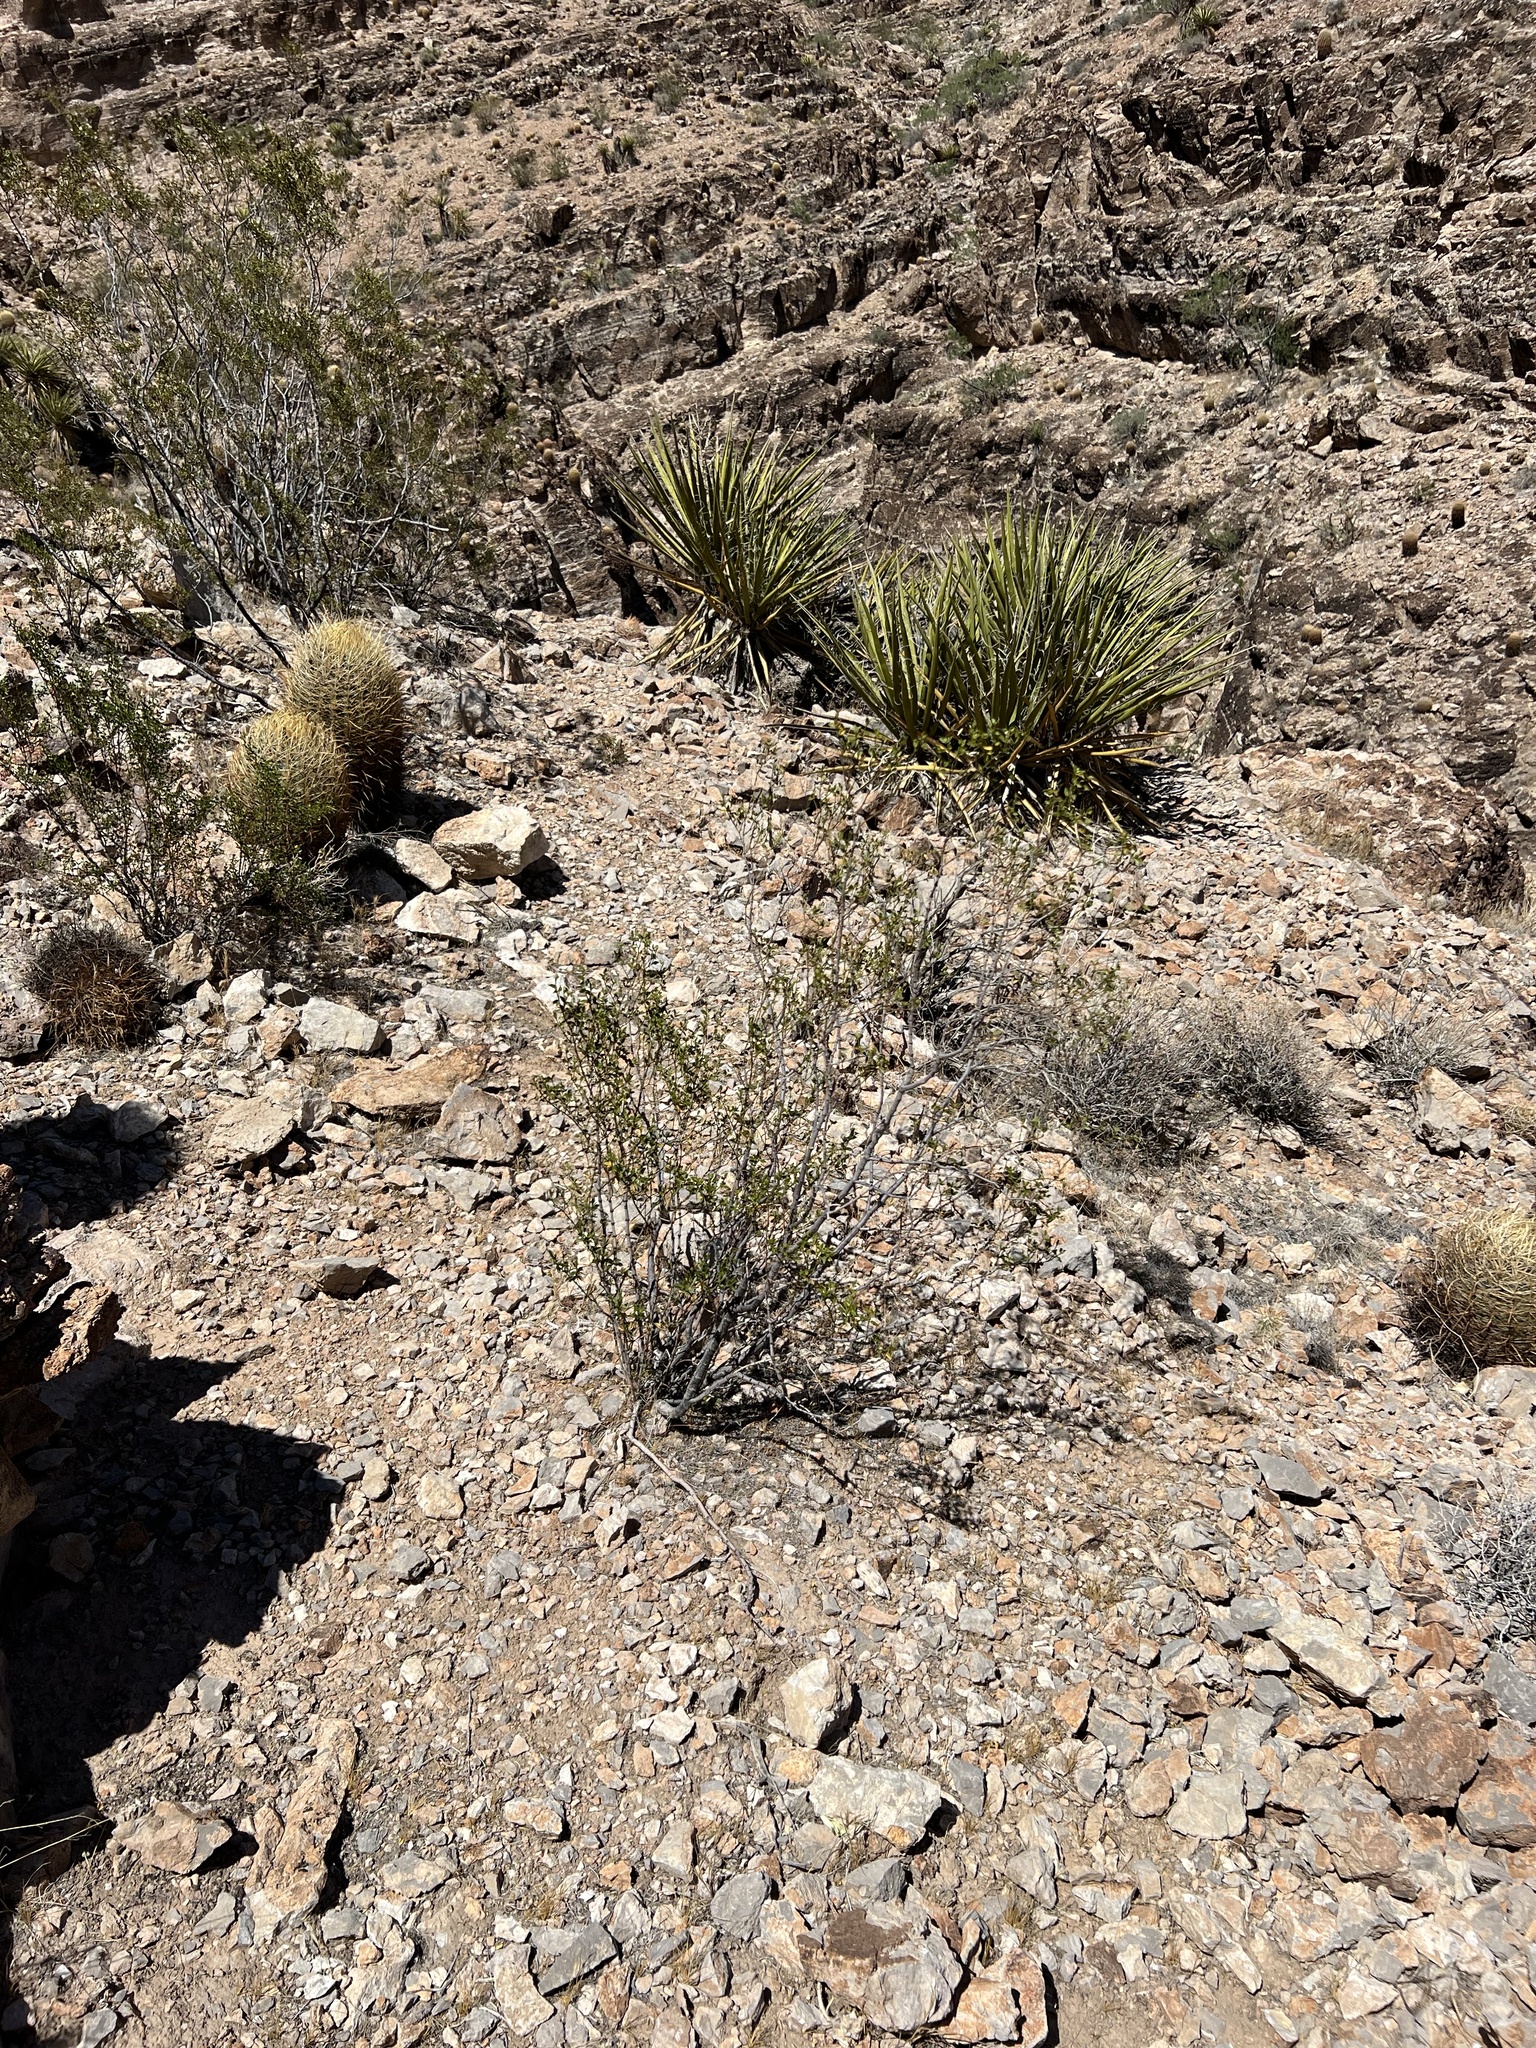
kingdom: Plantae
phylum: Tracheophyta
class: Magnoliopsida
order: Zygophyllales
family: Zygophyllaceae
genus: Larrea
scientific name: Larrea tridentata
